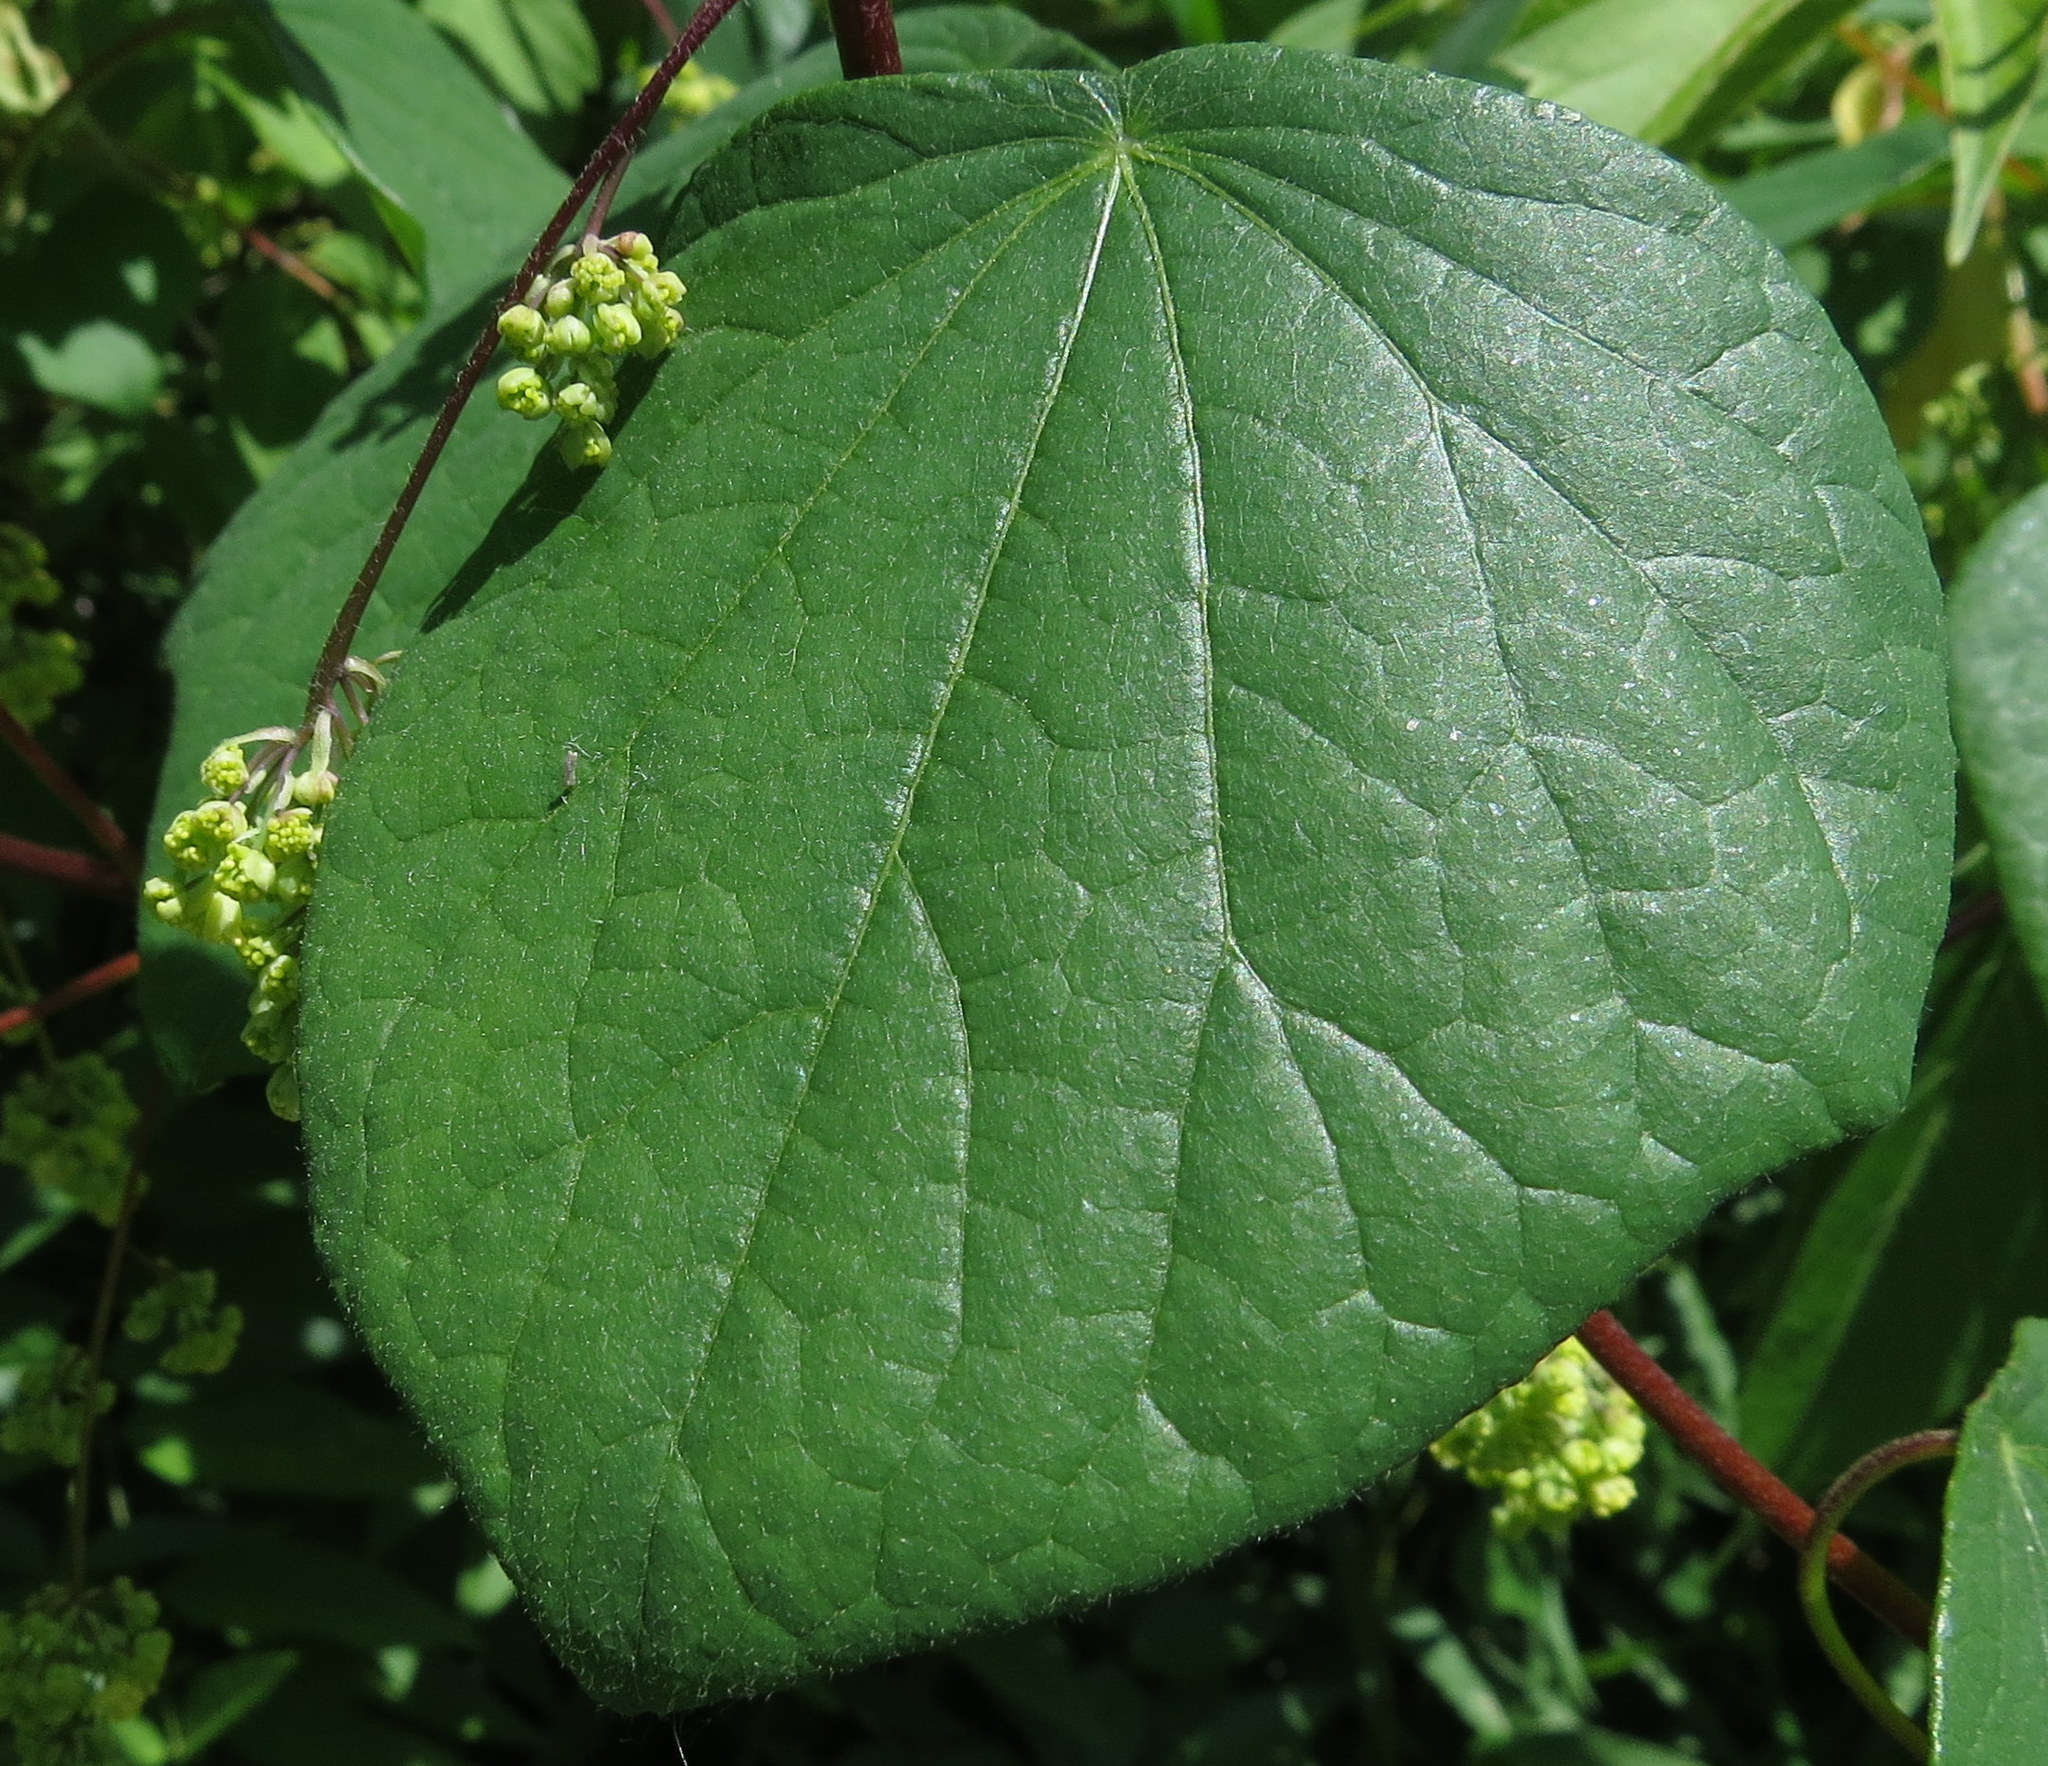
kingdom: Plantae
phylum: Tracheophyta
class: Magnoliopsida
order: Ranunculales
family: Menispermaceae
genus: Menispermum
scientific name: Menispermum canadense
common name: Moonseed
